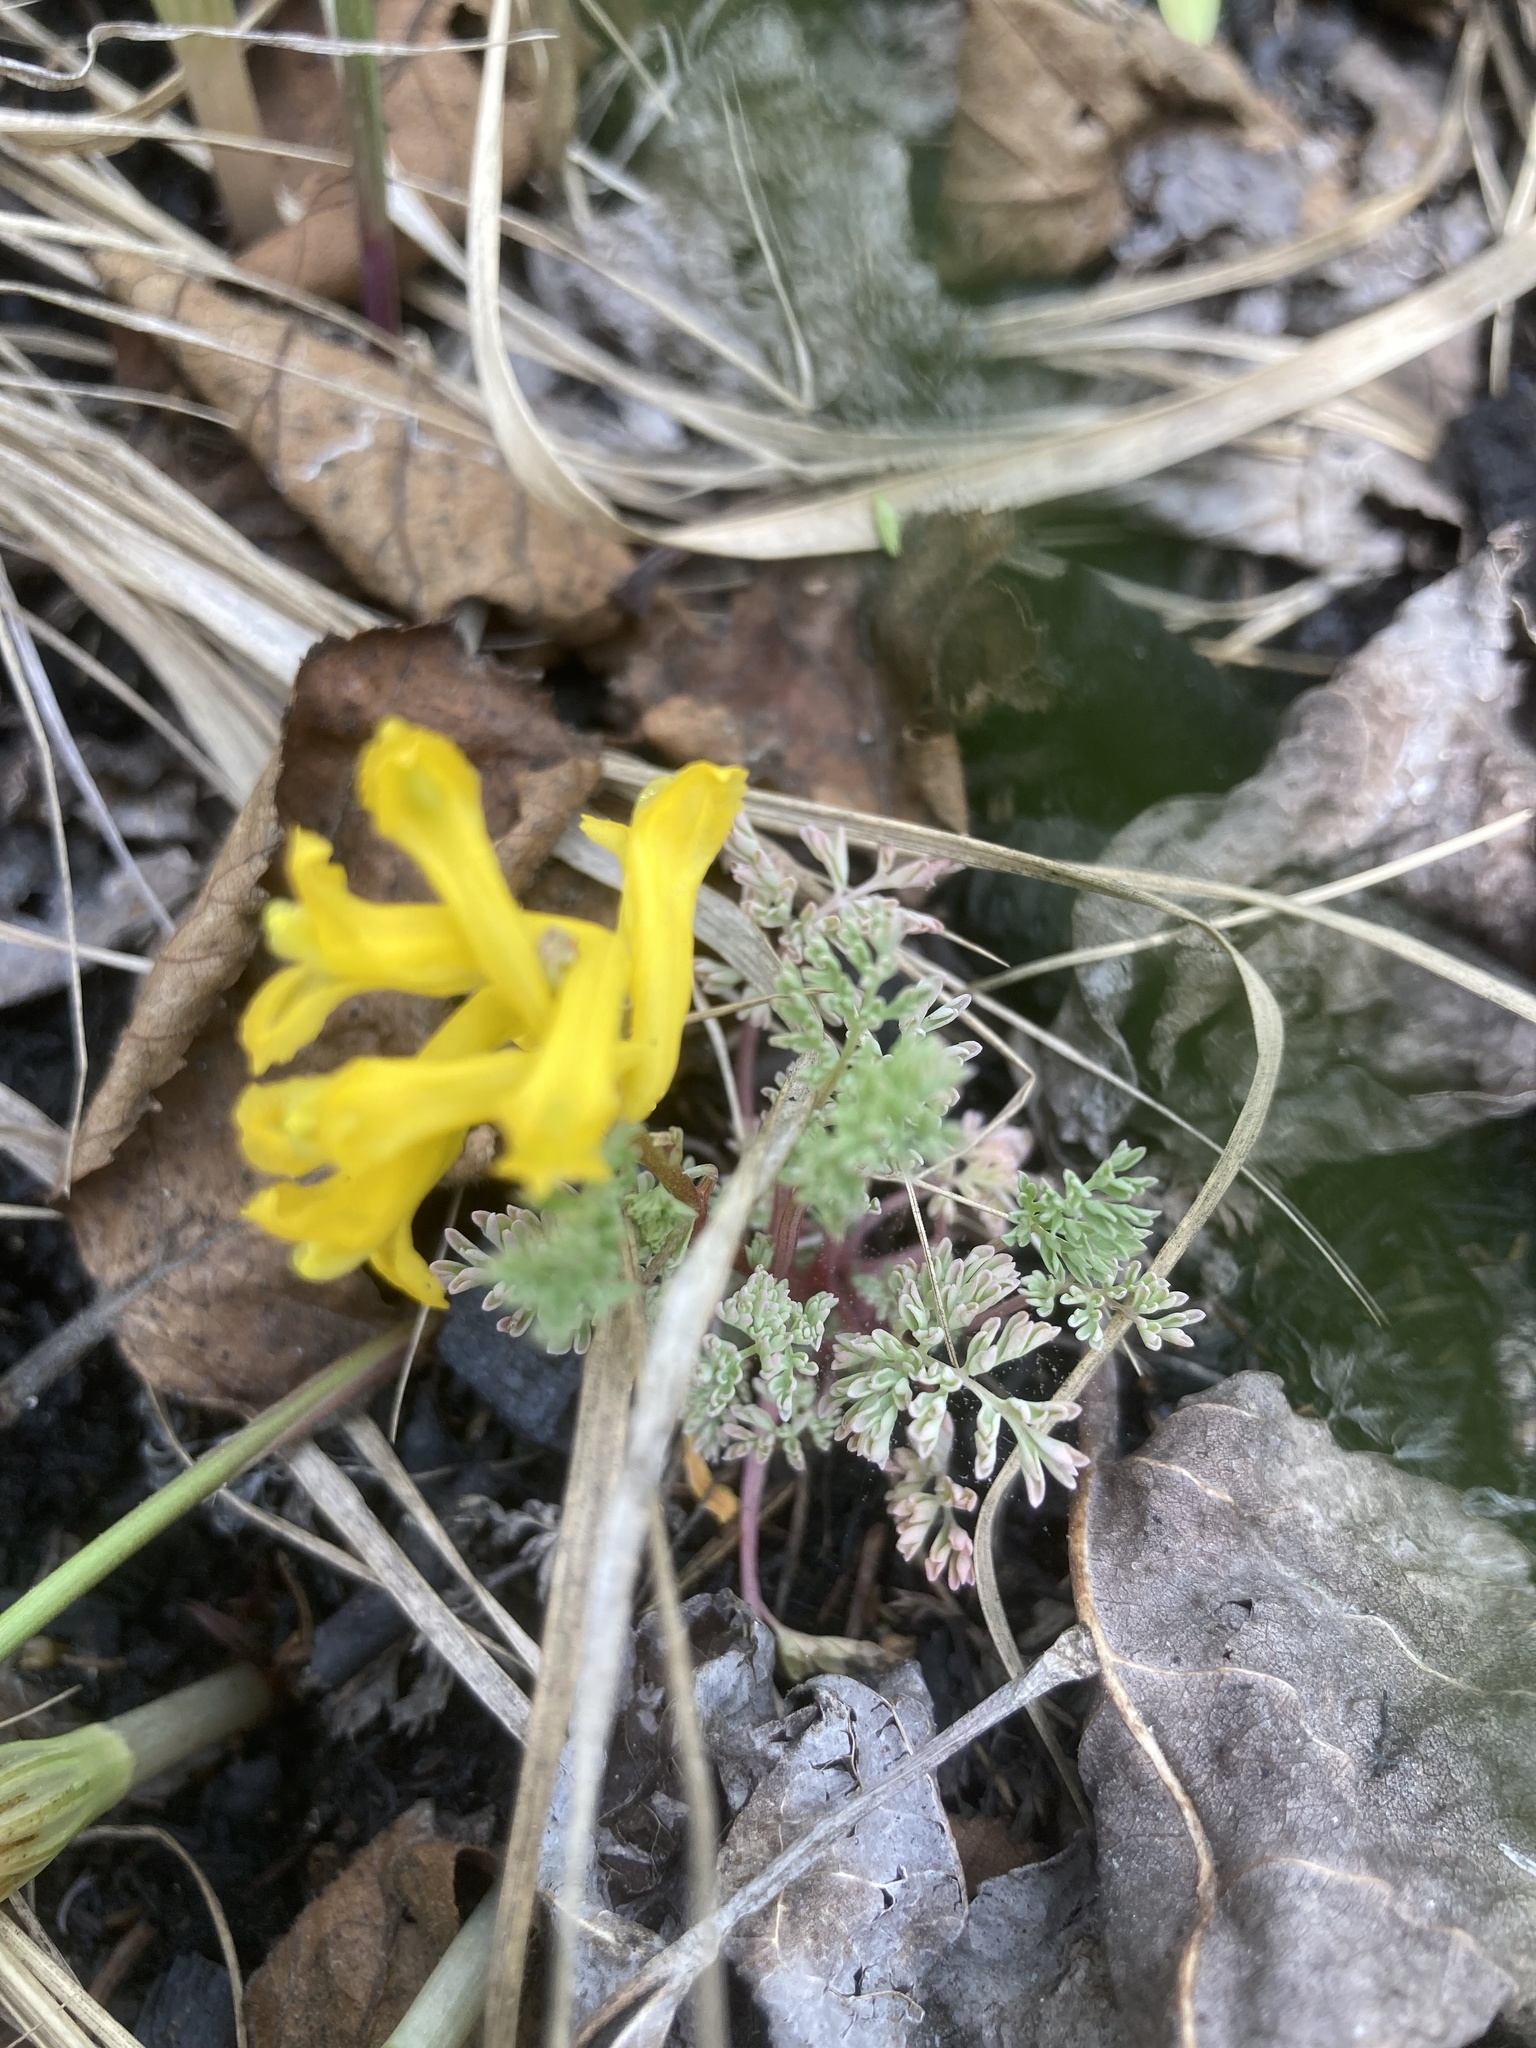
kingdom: Plantae
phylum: Tracheophyta
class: Magnoliopsida
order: Ranunculales
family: Papaveraceae
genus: Corydalis
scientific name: Corydalis aurea
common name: Golden corydalis
